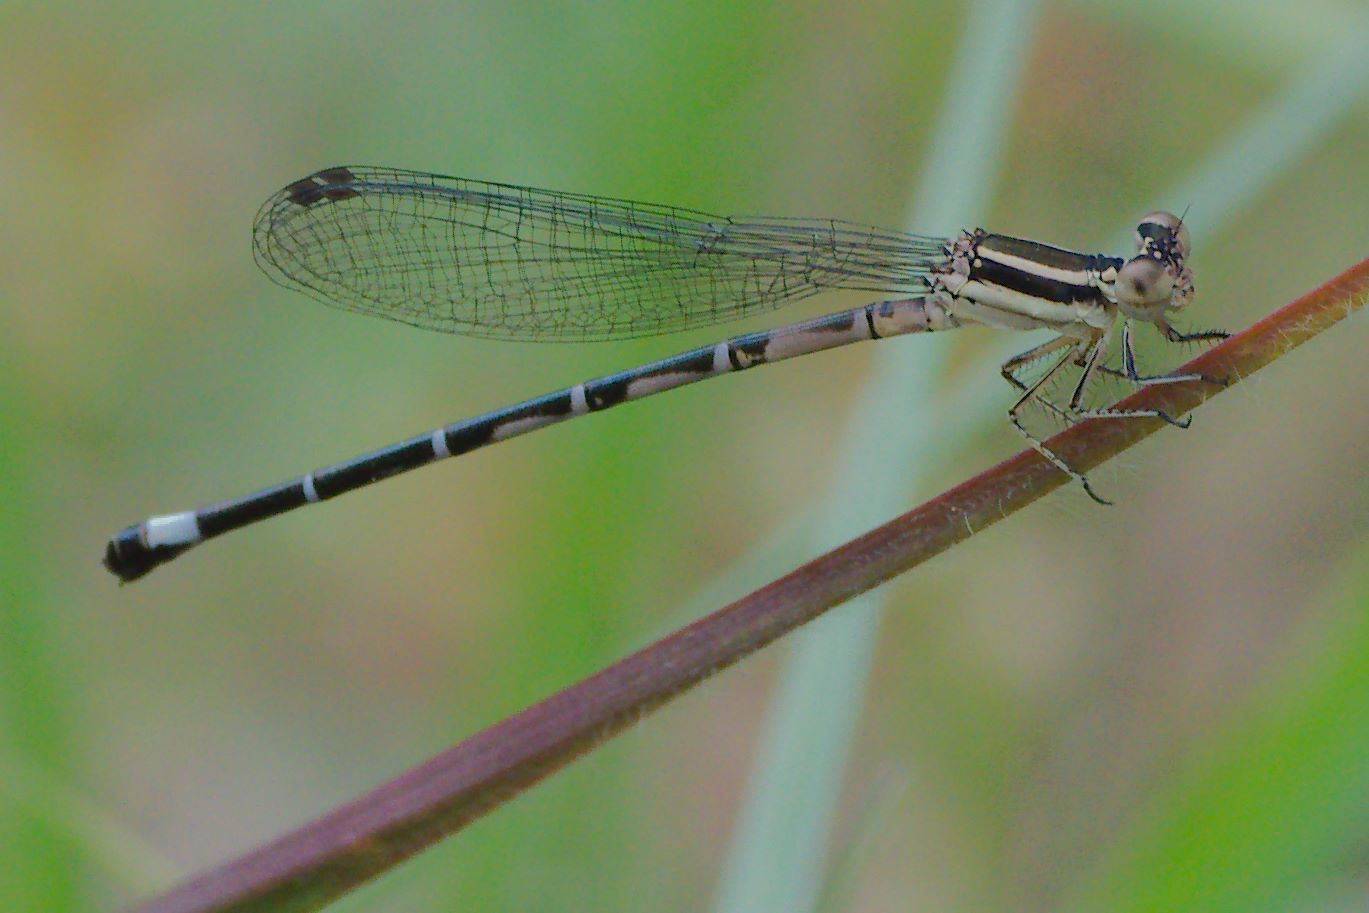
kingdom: Animalia
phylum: Arthropoda
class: Insecta
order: Odonata
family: Coenagrionidae
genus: Argia
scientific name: Argia bipunctulata
